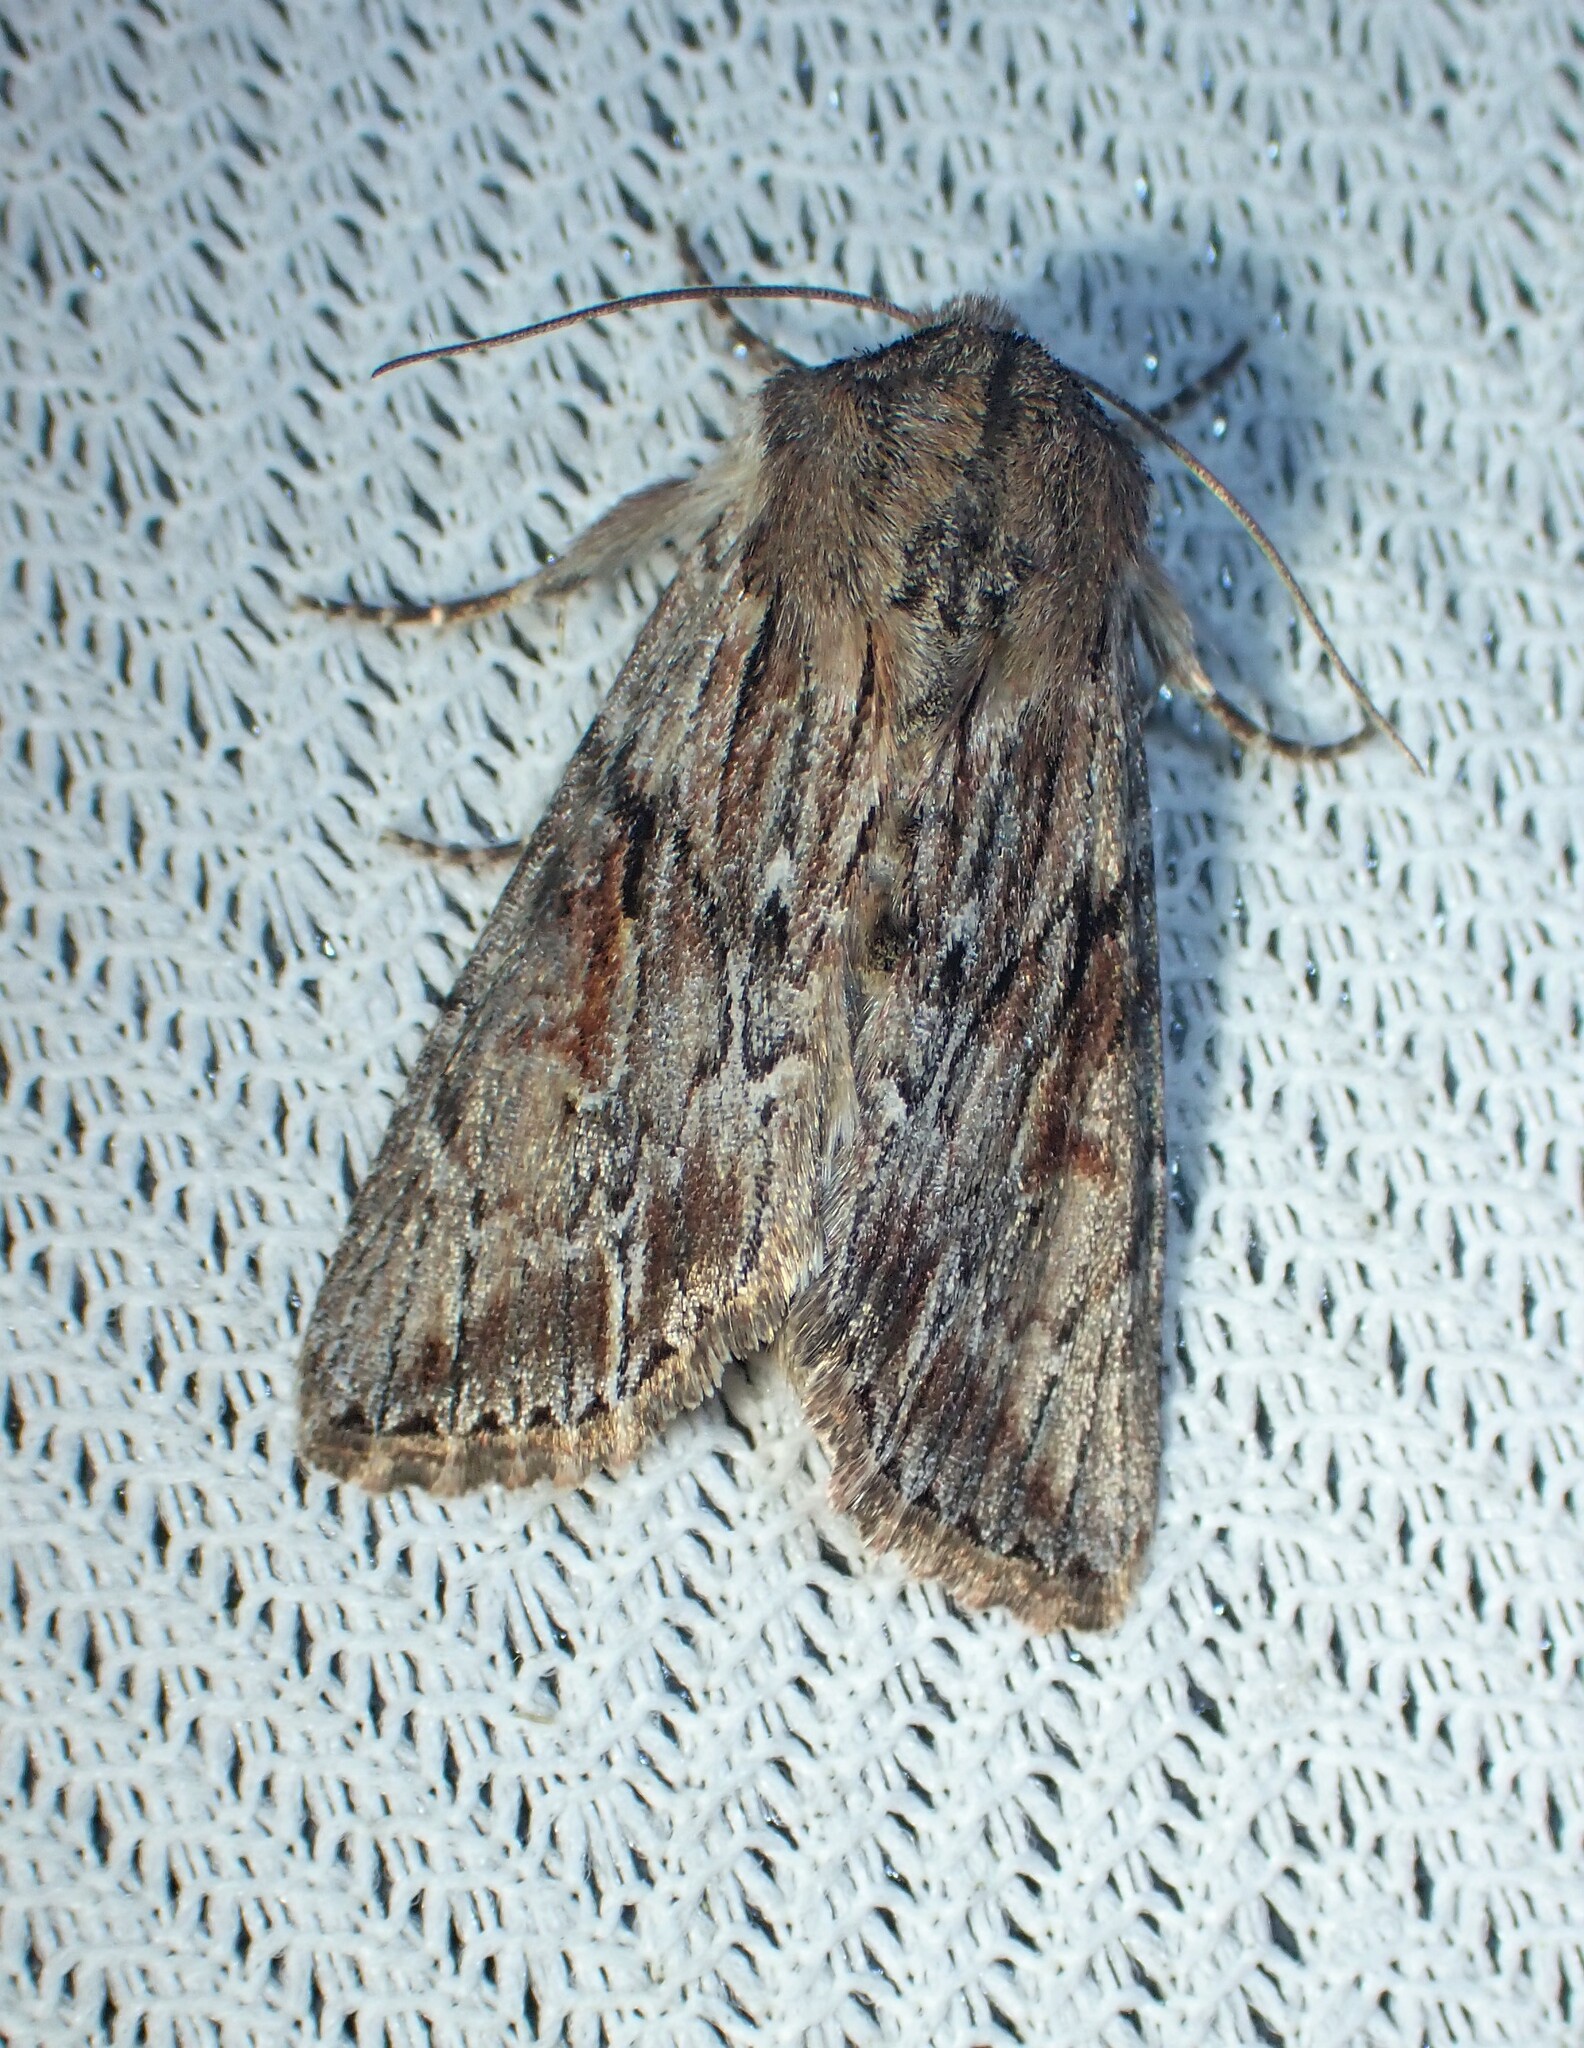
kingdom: Animalia
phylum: Arthropoda
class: Insecta
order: Lepidoptera
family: Noctuidae
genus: Achatia
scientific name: Achatia evicta
